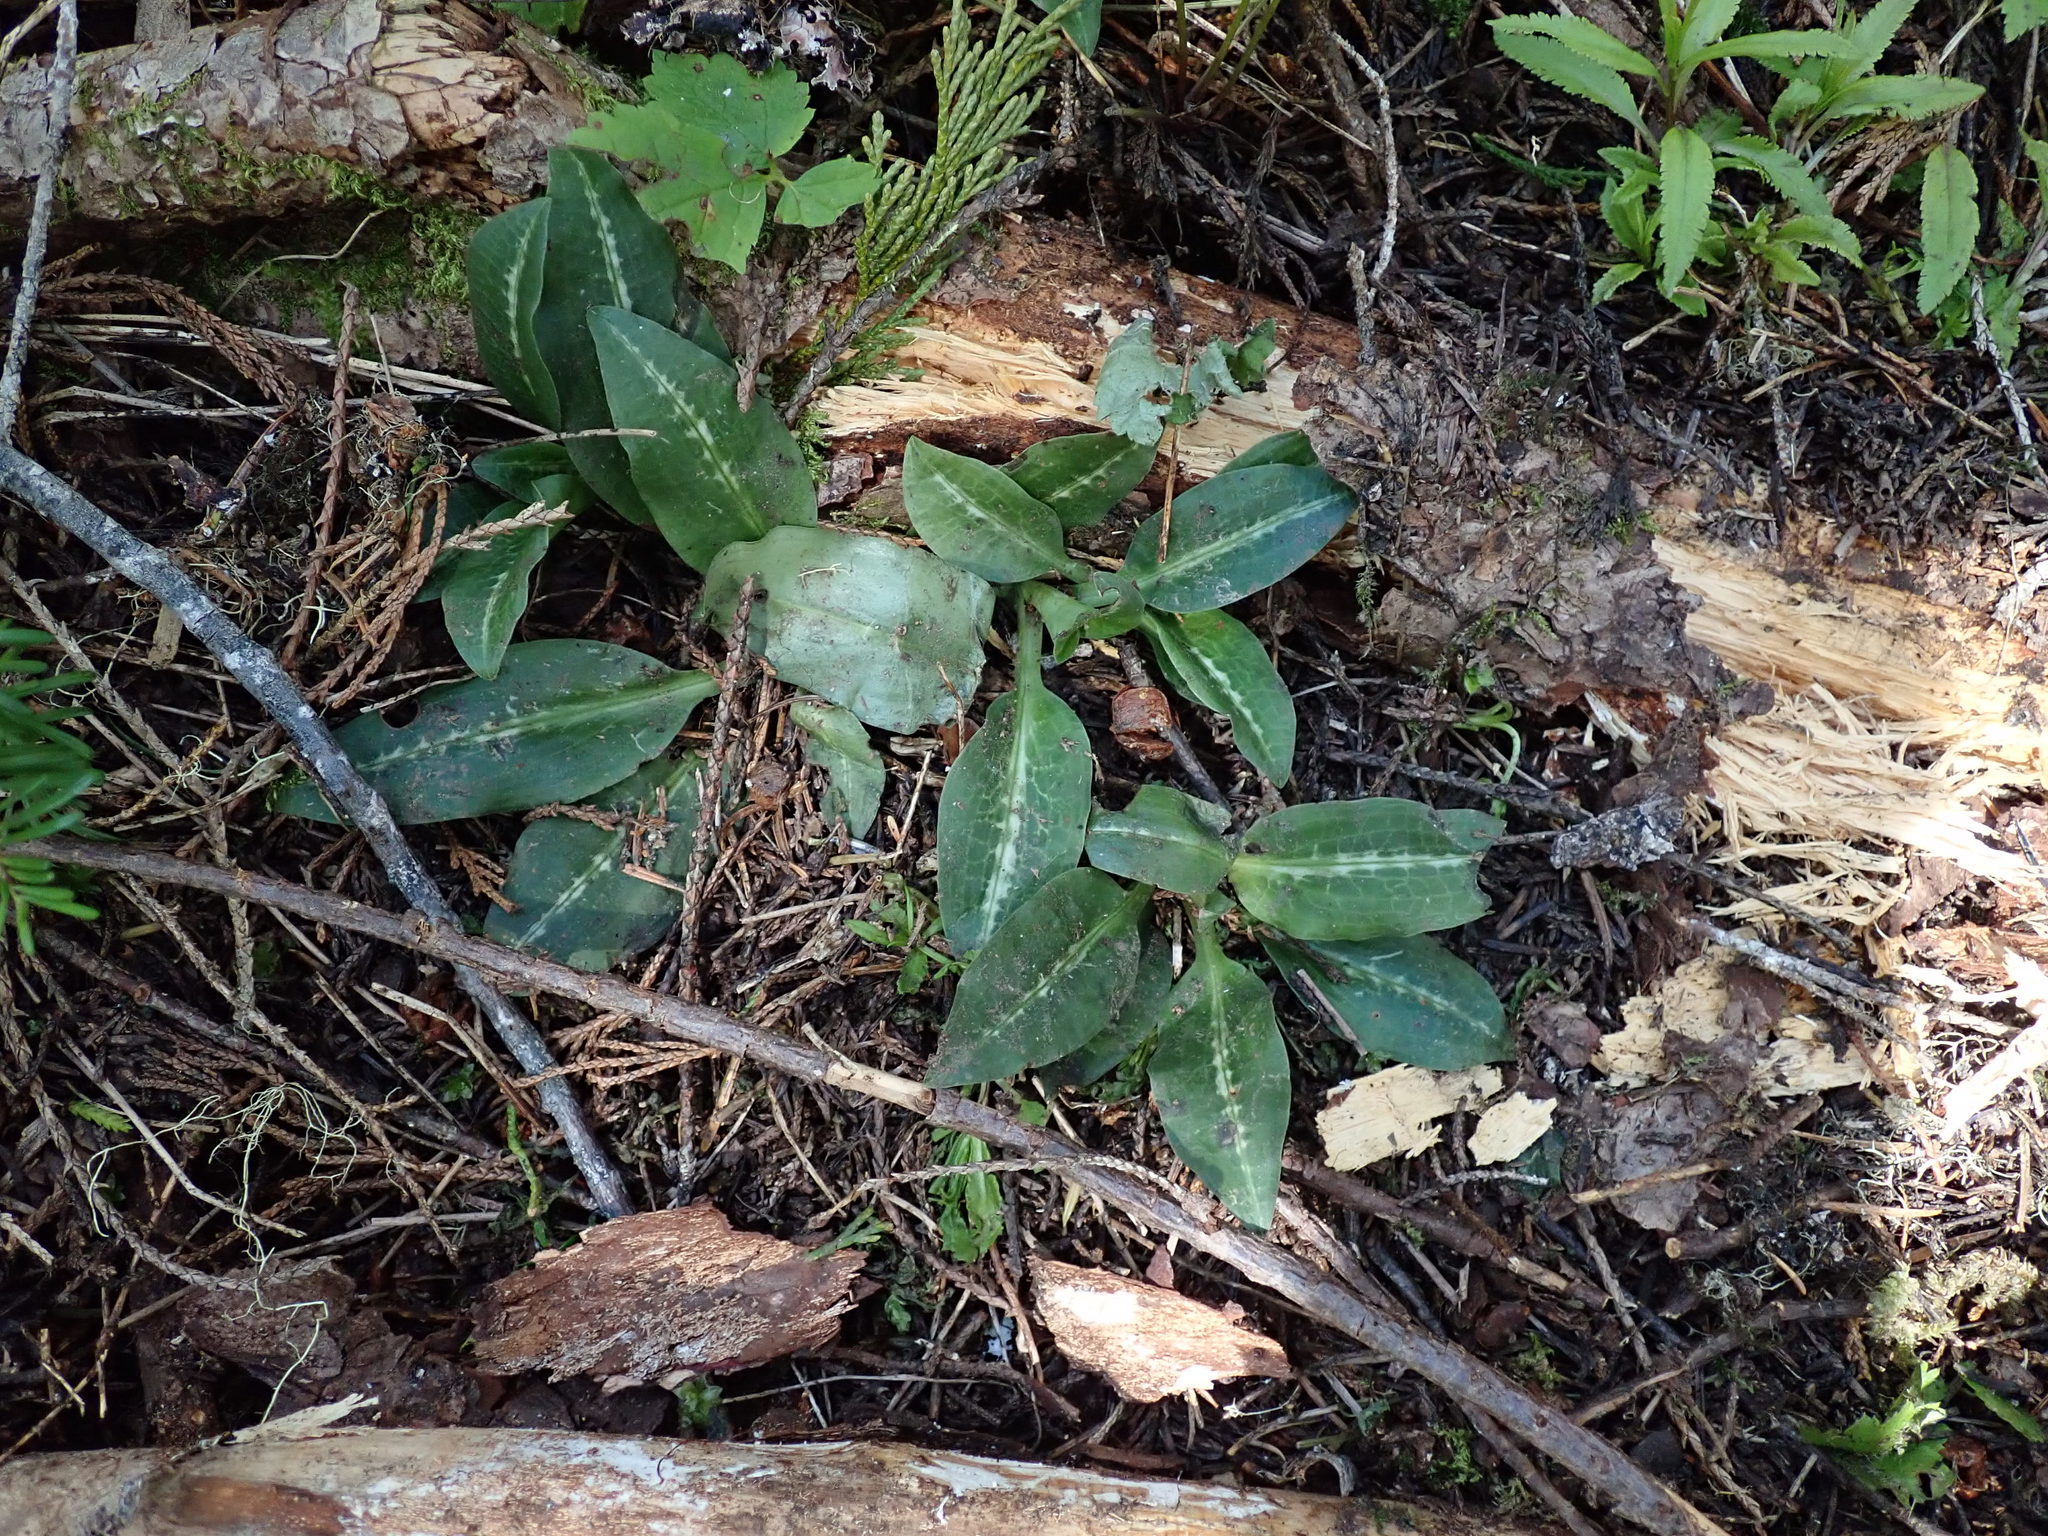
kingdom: Plantae
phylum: Tracheophyta
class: Liliopsida
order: Asparagales
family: Orchidaceae
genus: Goodyera
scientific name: Goodyera oblongifolia
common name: Giant rattlesnake-plantain
